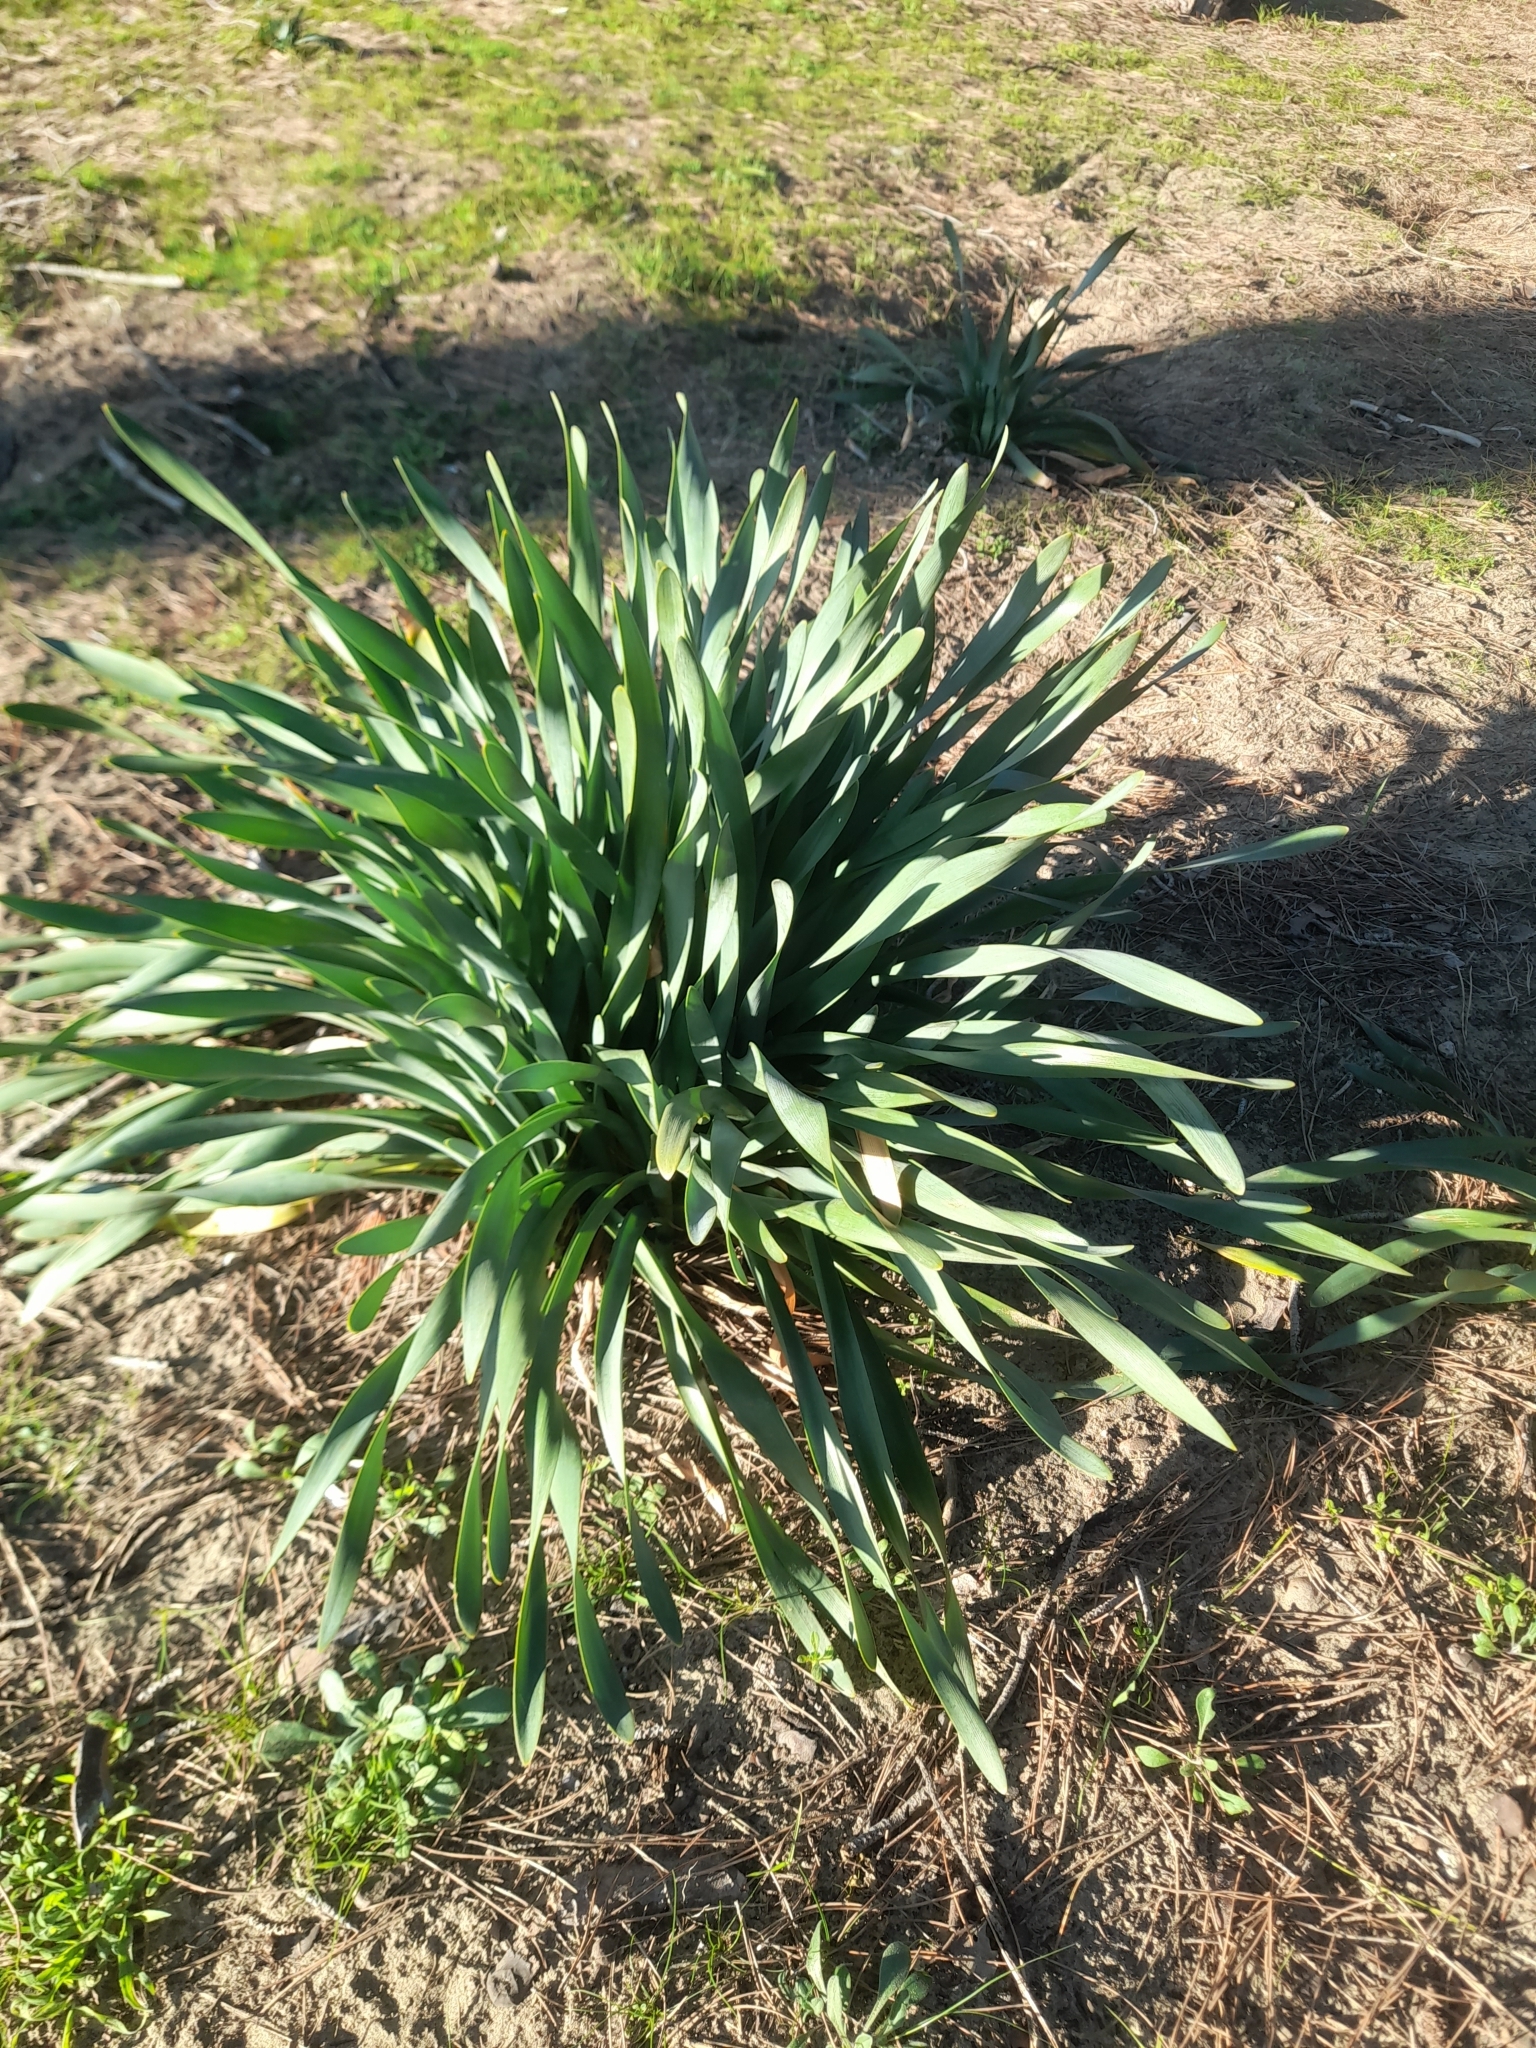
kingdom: Plantae
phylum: Tracheophyta
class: Liliopsida
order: Asparagales
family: Amaryllidaceae
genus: Pancratium
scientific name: Pancratium maritimum
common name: Sea-daffodil
